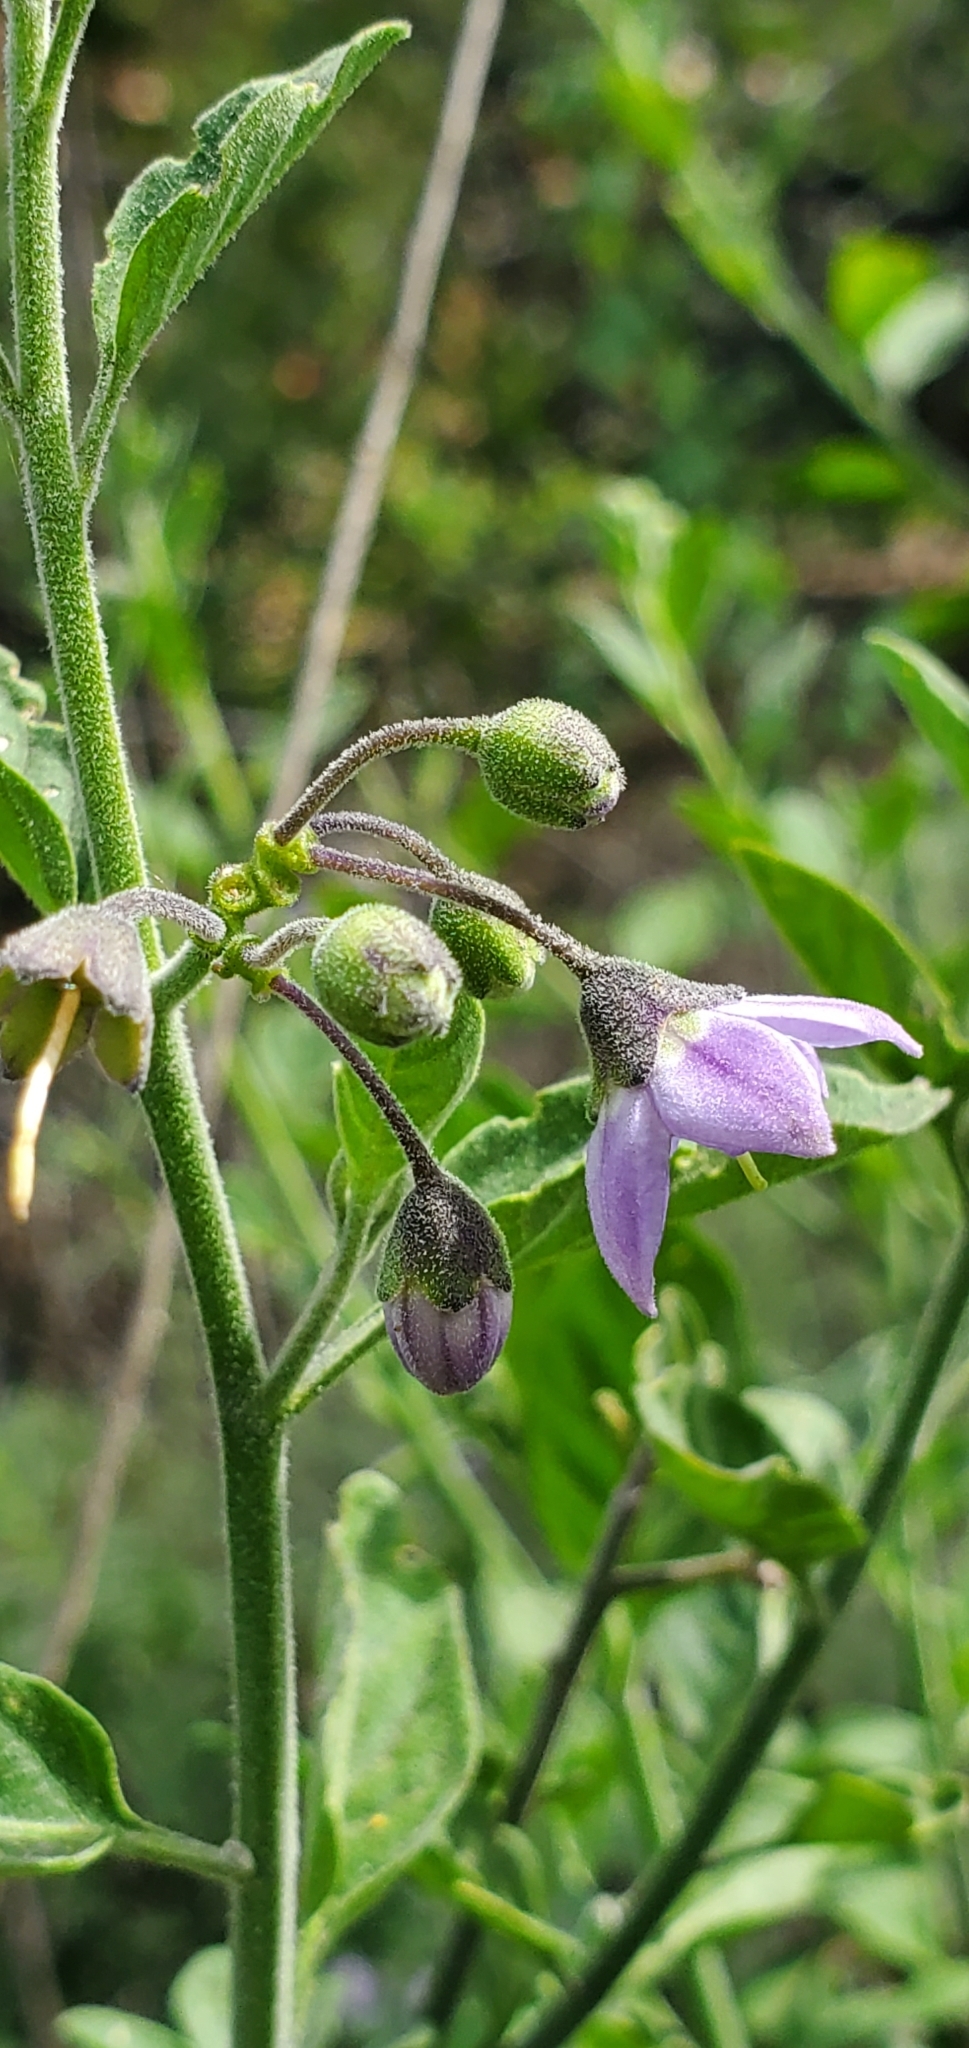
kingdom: Plantae
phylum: Tracheophyta
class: Magnoliopsida
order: Solanales
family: Solanaceae
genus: Solanum
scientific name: Solanum umbelliferum
